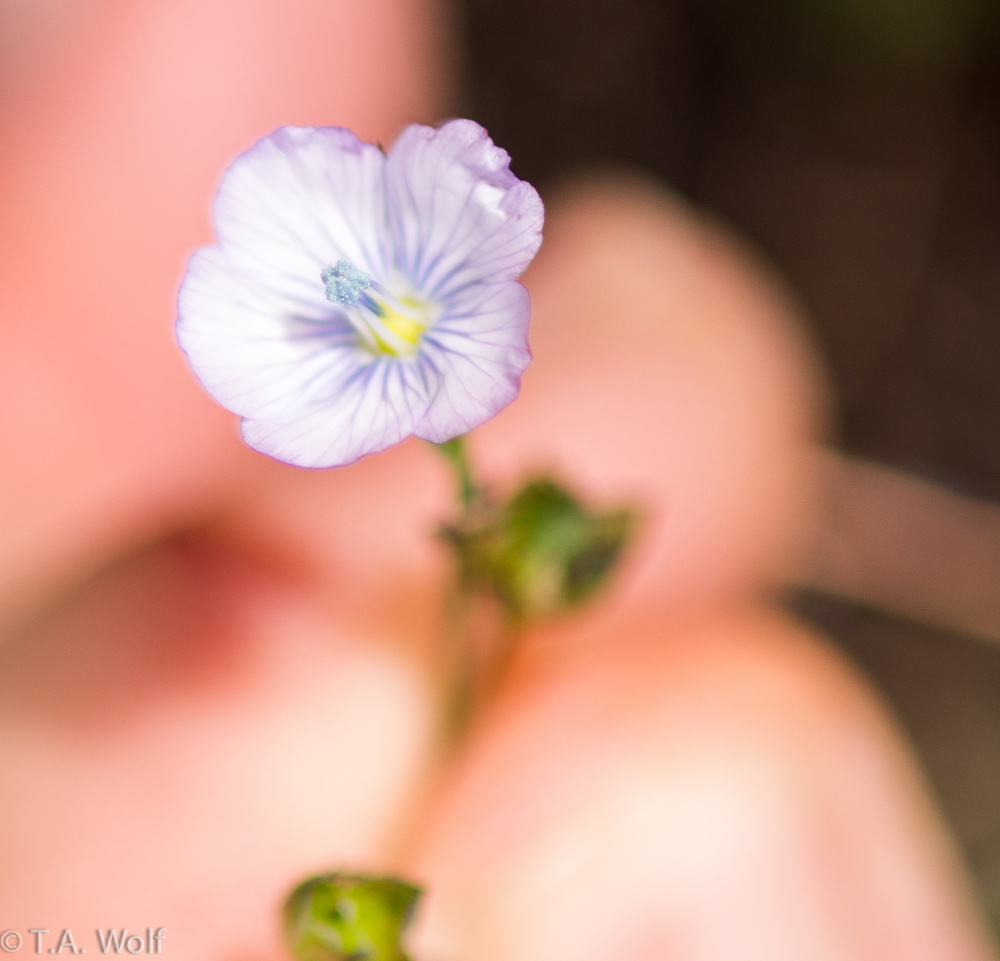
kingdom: Plantae
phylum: Tracheophyta
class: Magnoliopsida
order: Malpighiales
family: Linaceae
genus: Linum
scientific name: Linum bienne
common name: Pale flax
